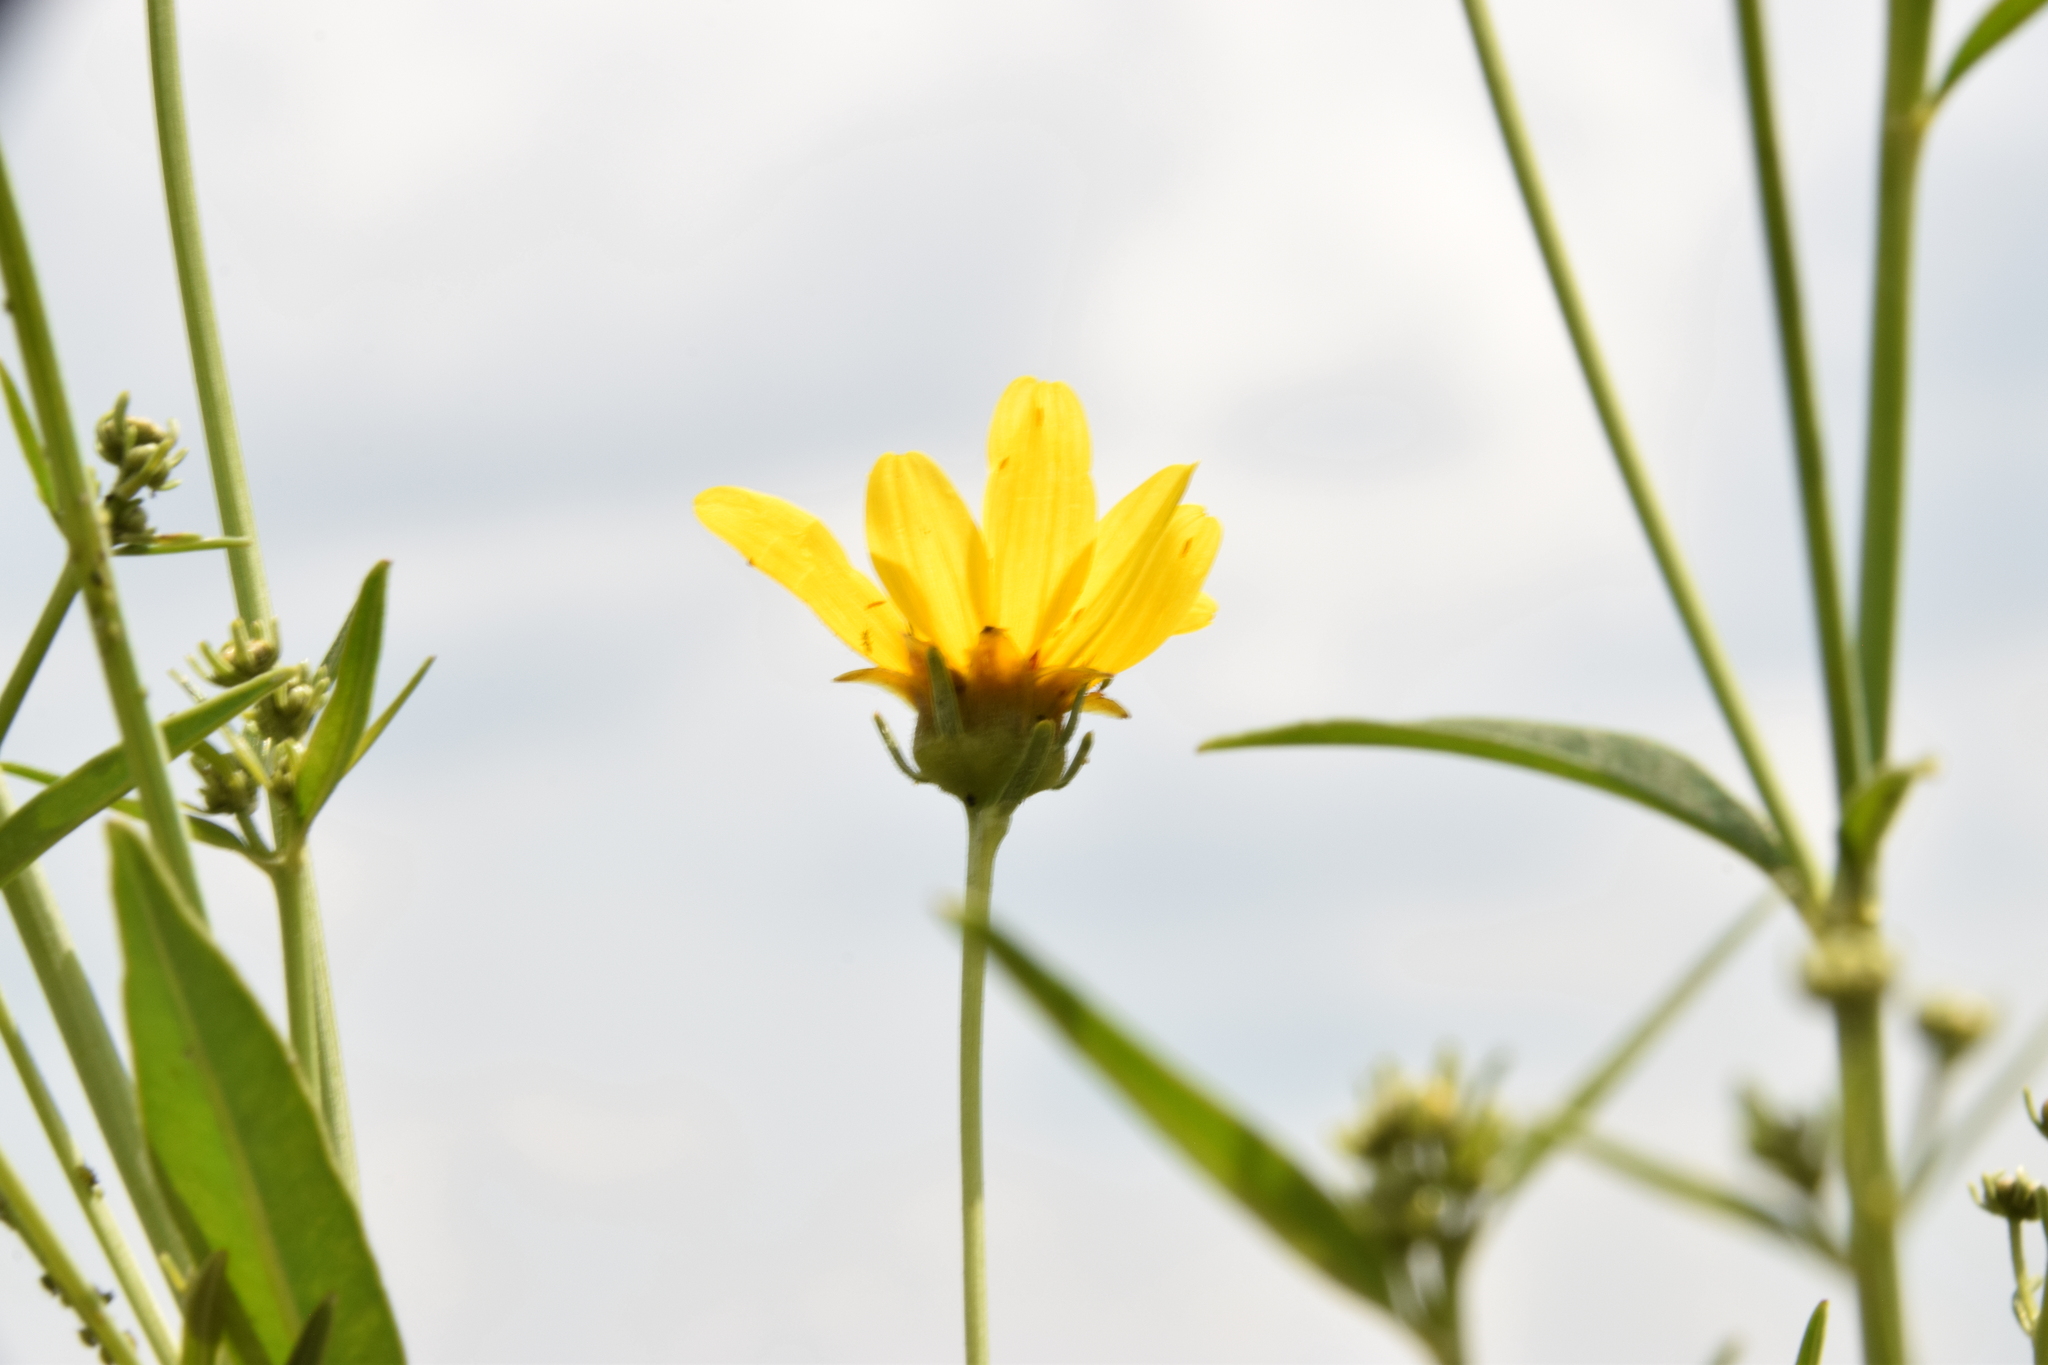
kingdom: Plantae
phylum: Tracheophyta
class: Magnoliopsida
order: Asterales
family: Asteraceae
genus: Coreopsis
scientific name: Coreopsis tripteris
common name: Tall coreopsis
